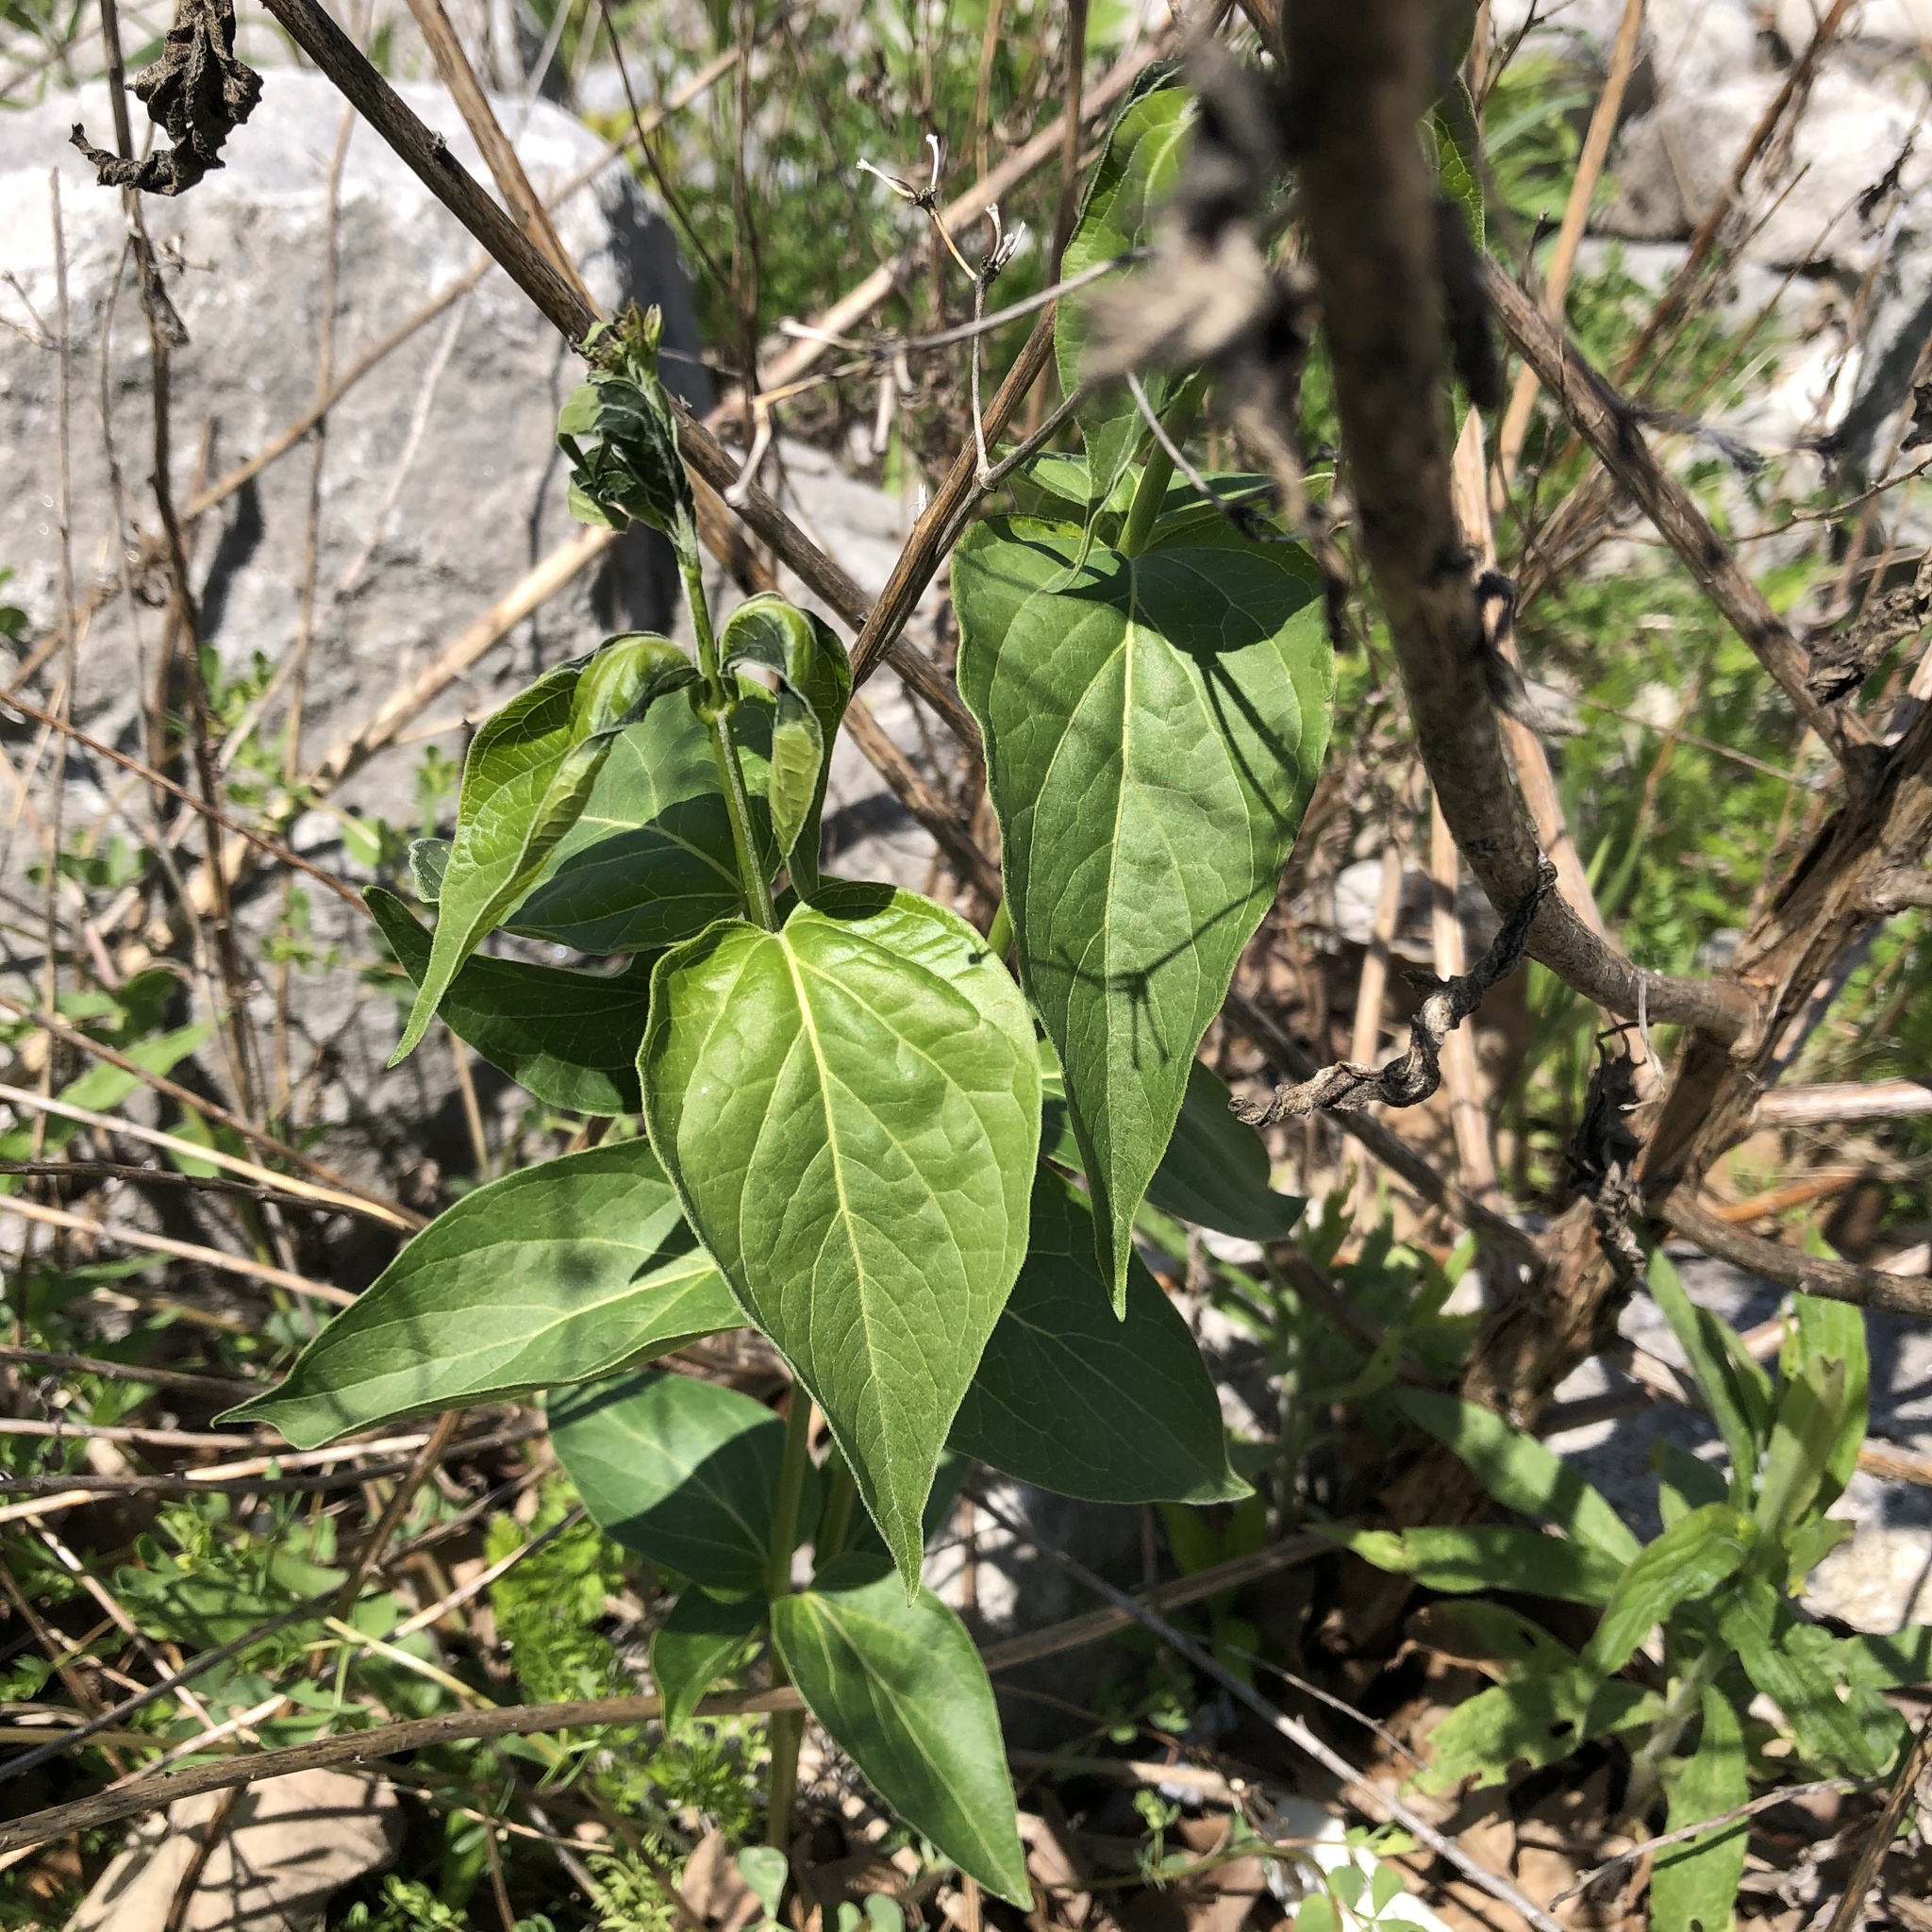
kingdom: Plantae
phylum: Tracheophyta
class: Magnoliopsida
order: Gentianales
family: Apocynaceae
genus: Vincetoxicum
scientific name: Vincetoxicum rossicum
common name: Dog-strangling vine
